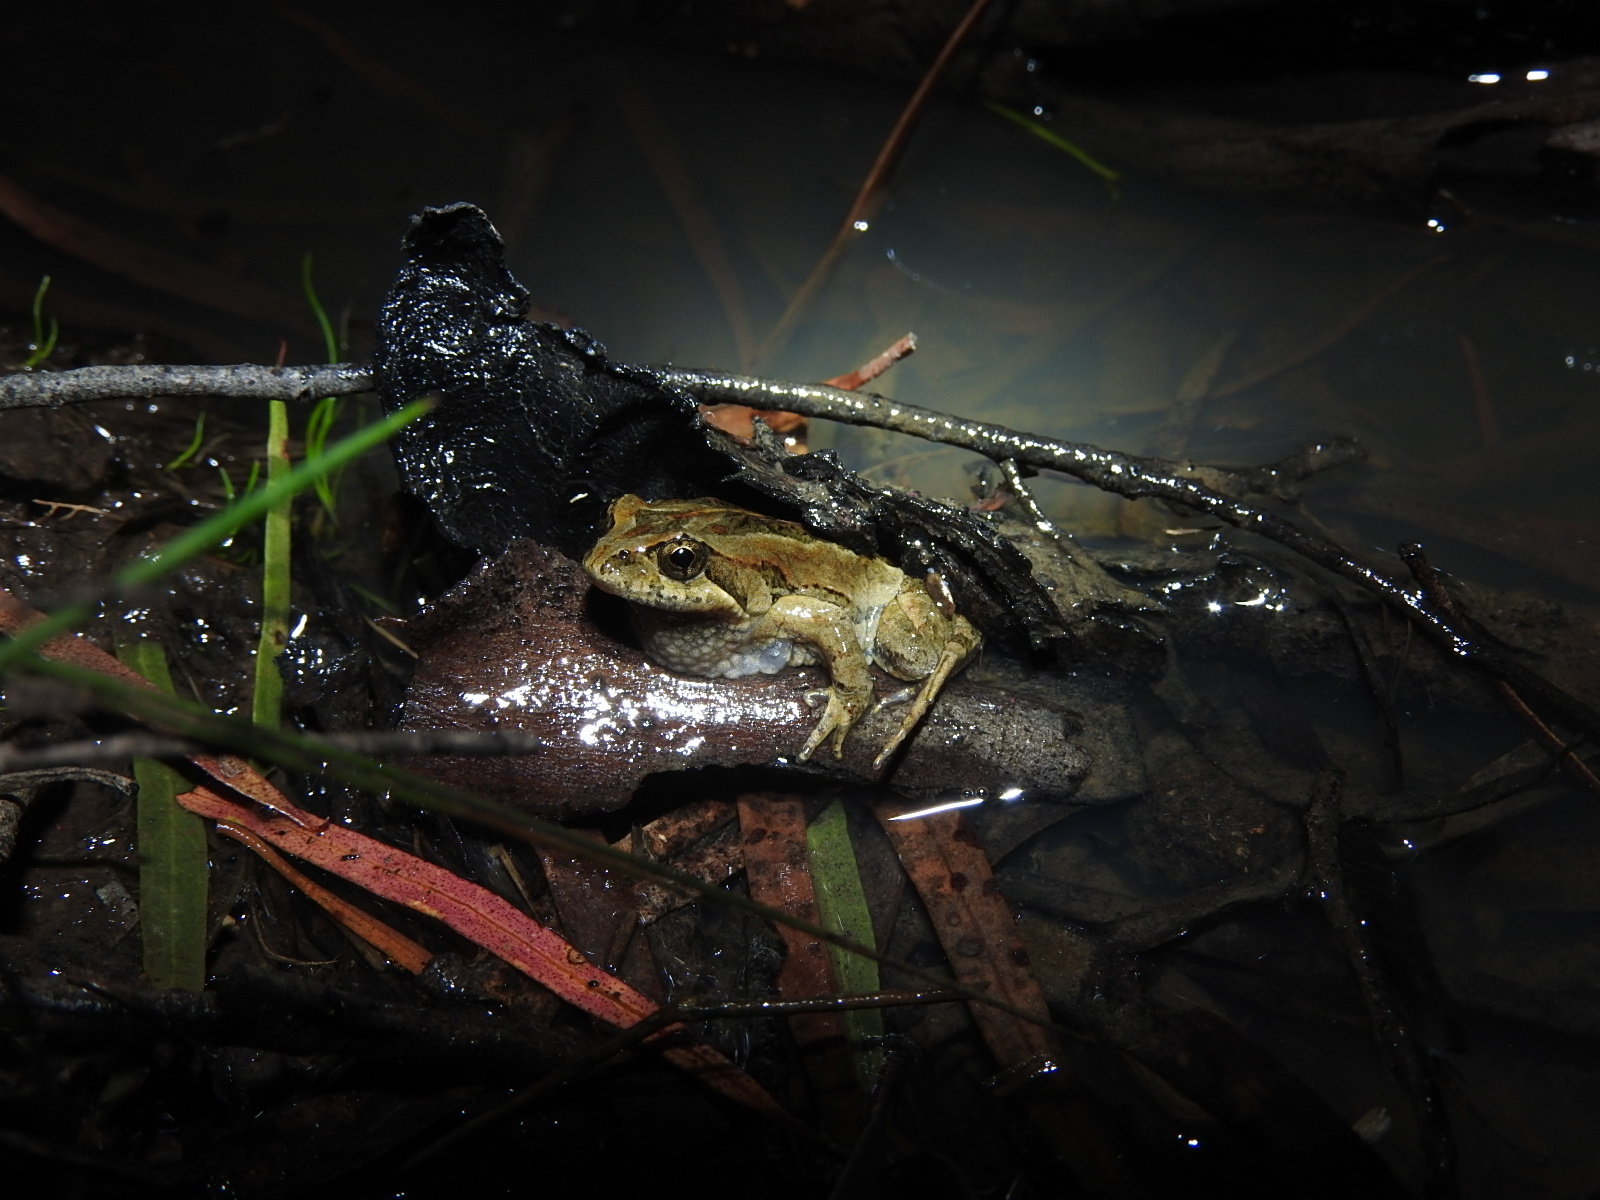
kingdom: Animalia
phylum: Chordata
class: Amphibia
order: Anura
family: Myobatrachidae
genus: Crinia
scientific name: Crinia signifera
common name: Brown froglet
